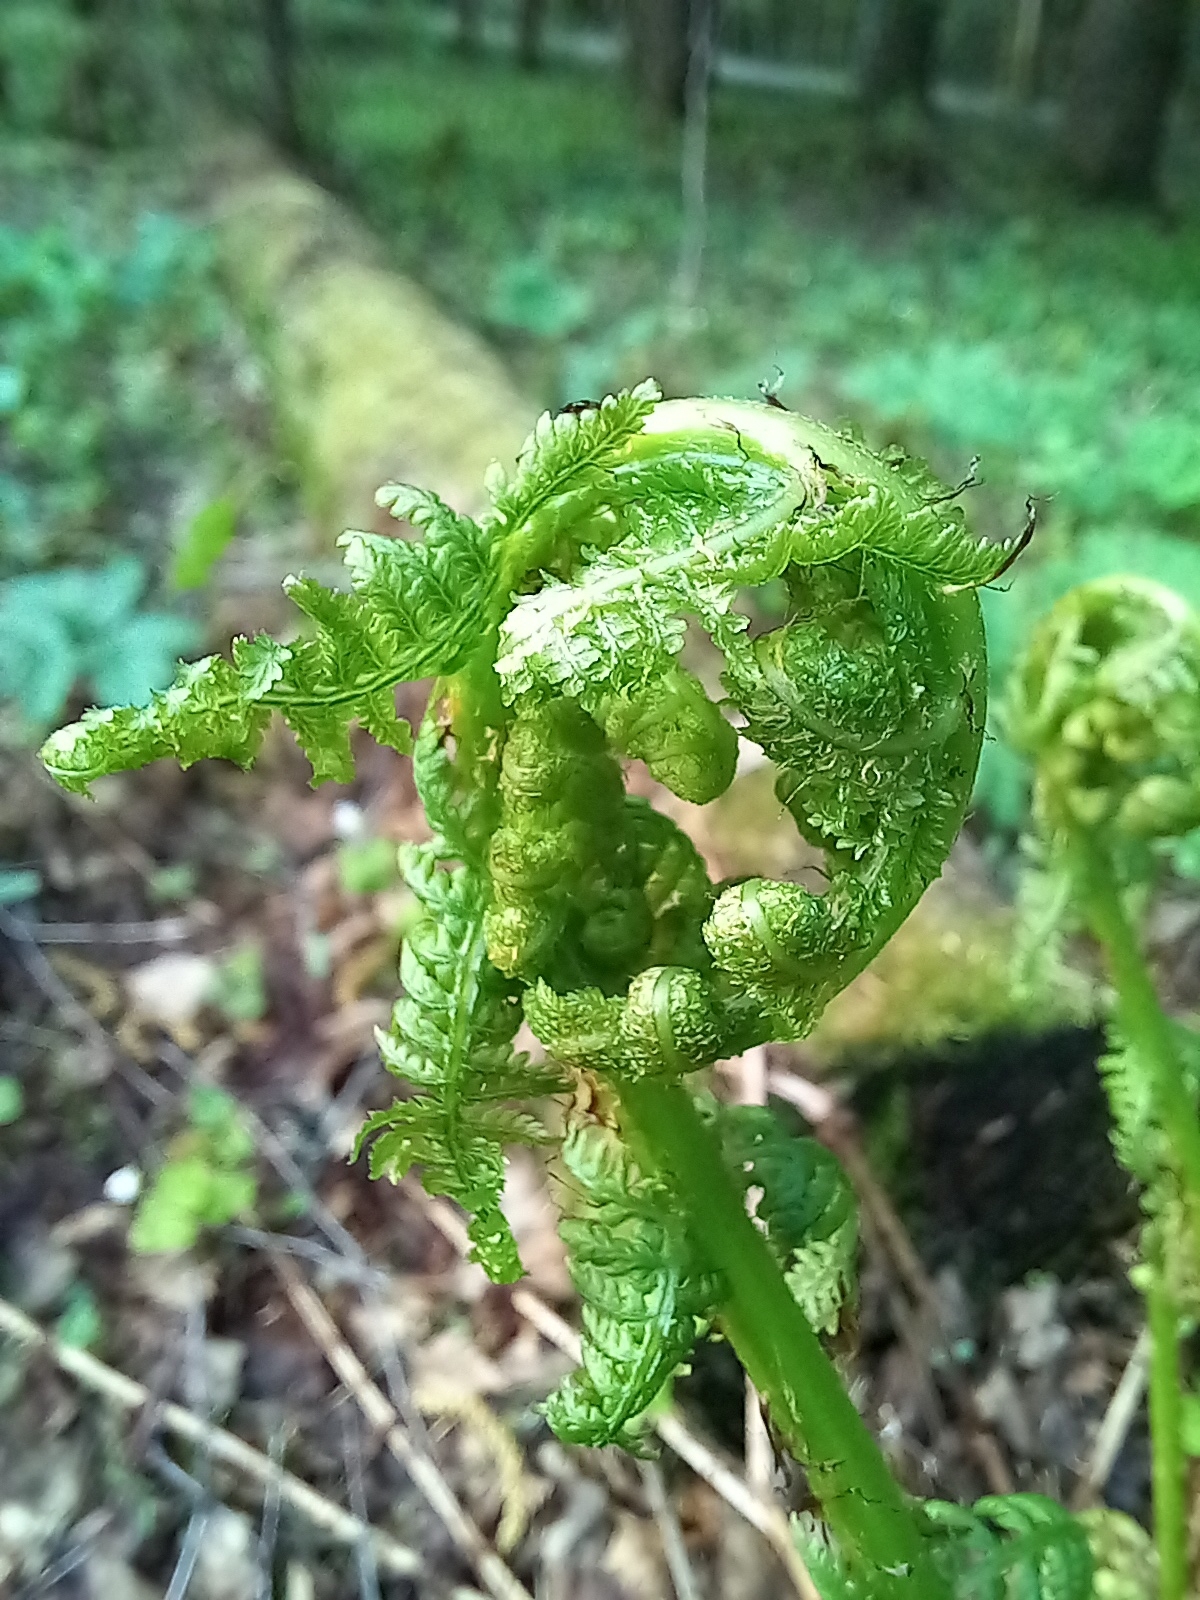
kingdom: Plantae
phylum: Tracheophyta
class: Polypodiopsida
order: Polypodiales
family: Athyriaceae
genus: Athyrium
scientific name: Athyrium filix-femina
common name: Lady fern
